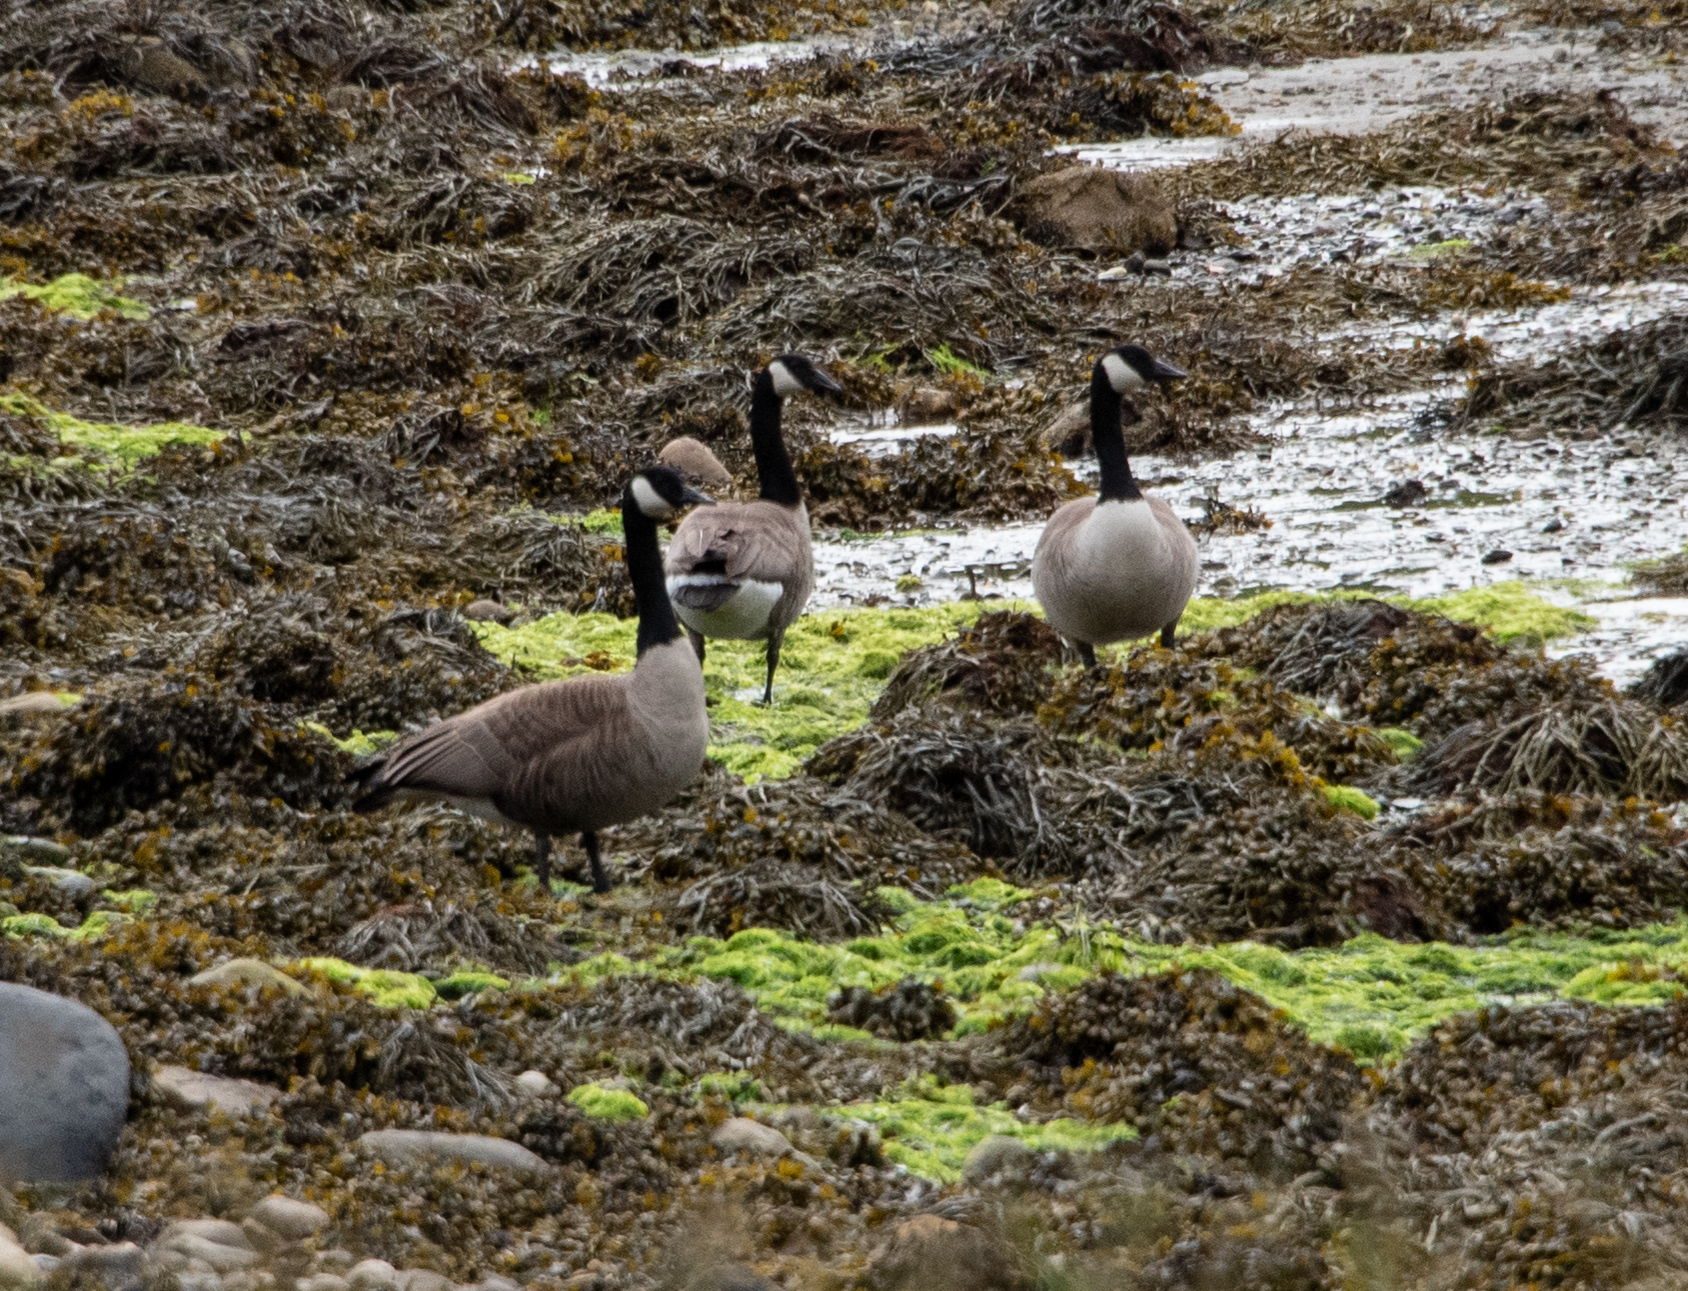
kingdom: Animalia
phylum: Chordata
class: Aves
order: Anseriformes
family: Anatidae
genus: Branta
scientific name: Branta canadensis
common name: Canada goose
